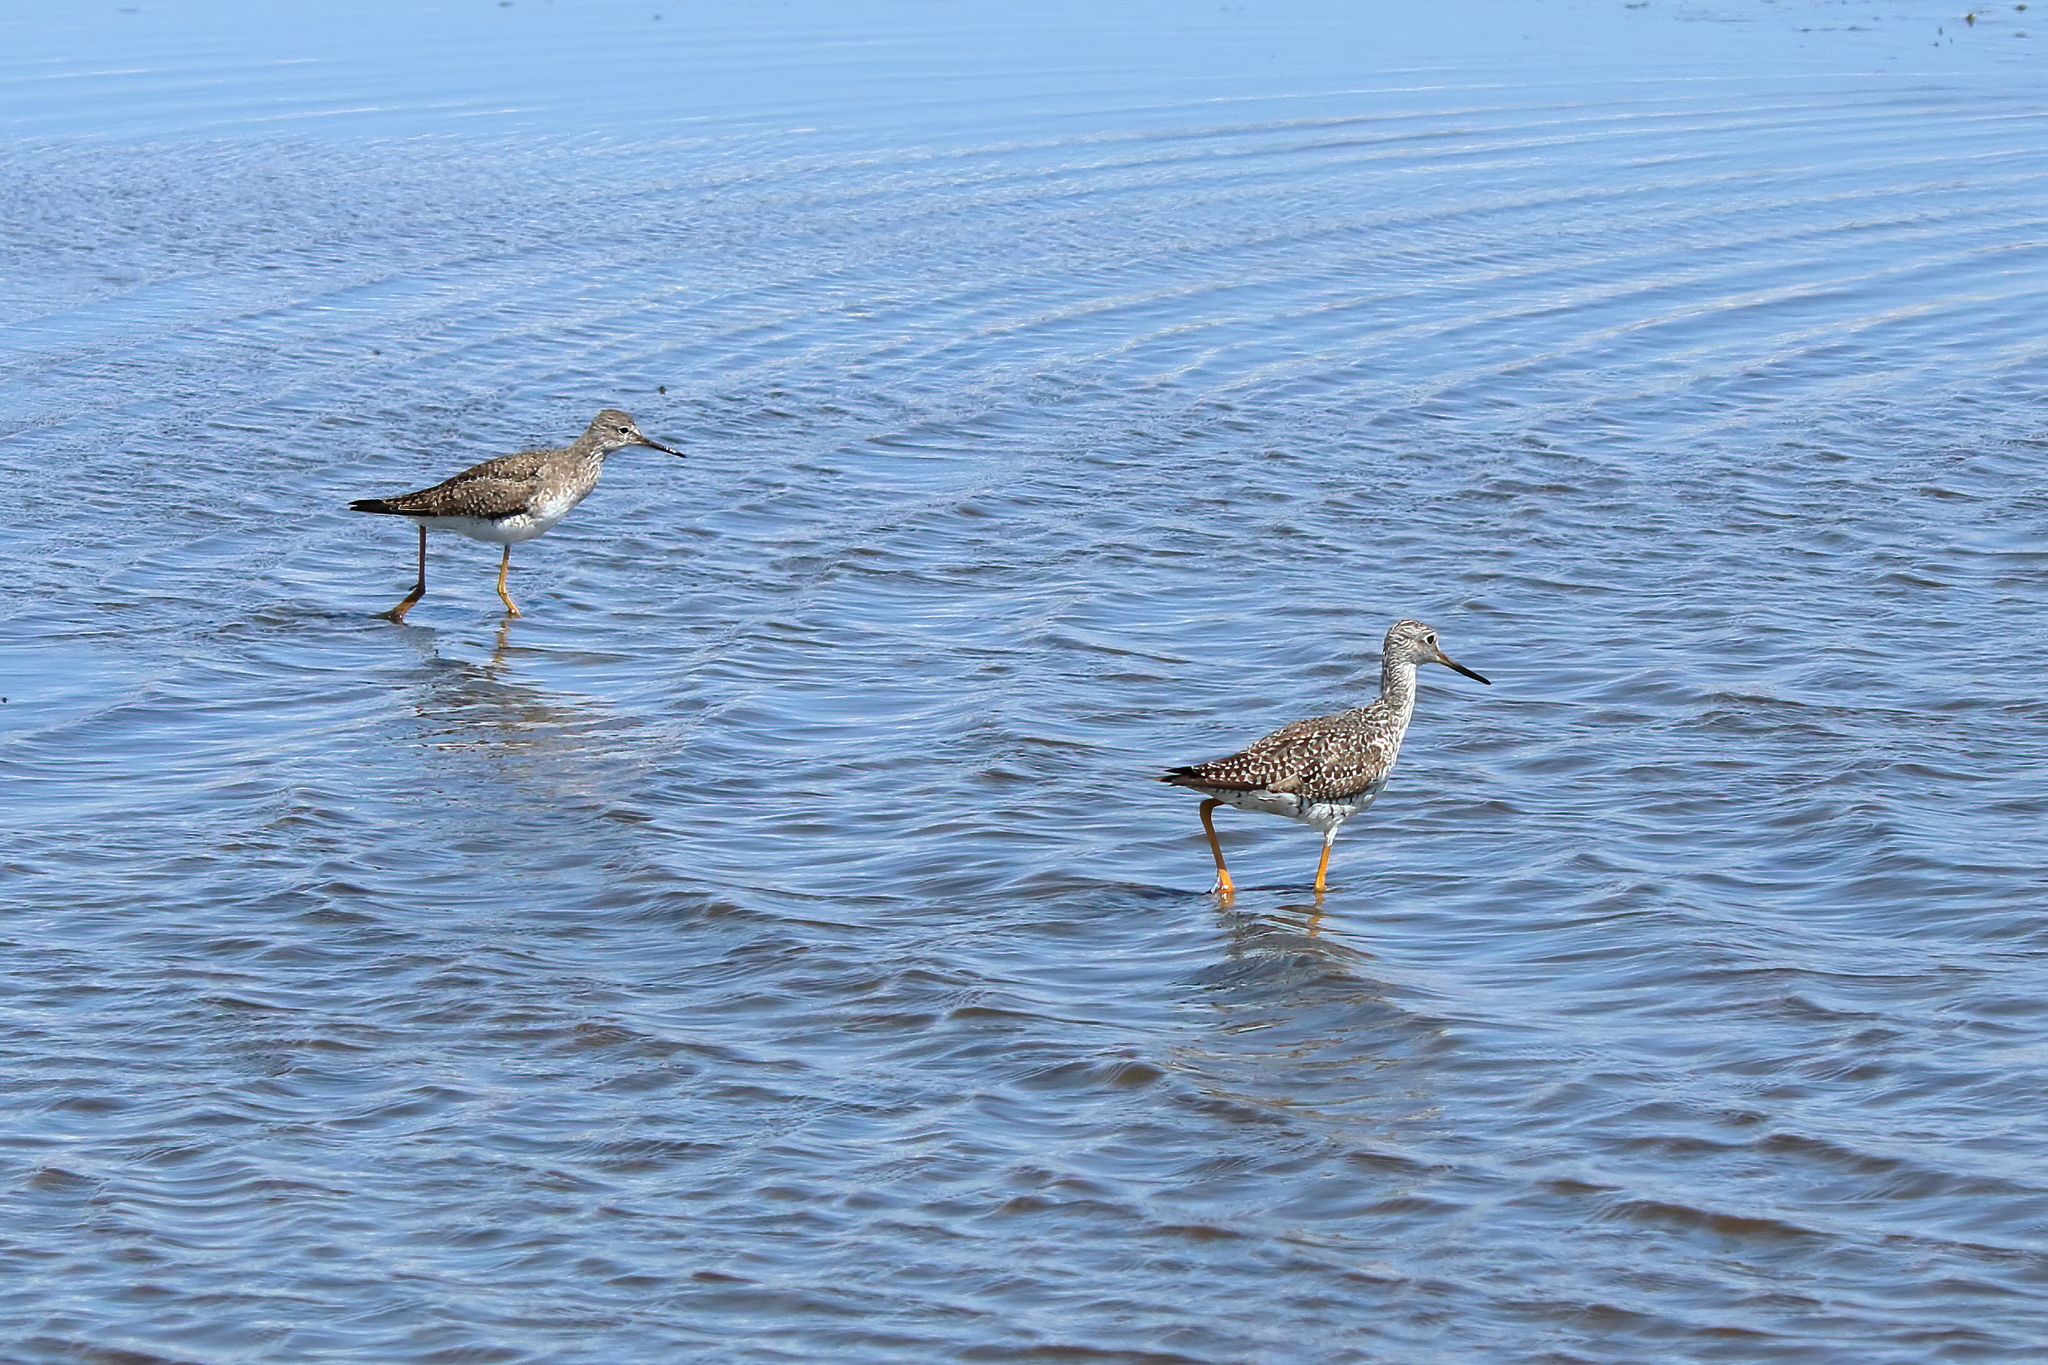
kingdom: Animalia
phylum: Chordata
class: Aves
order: Charadriiformes
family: Scolopacidae
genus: Tringa
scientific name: Tringa melanoleuca
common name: Greater yellowlegs
